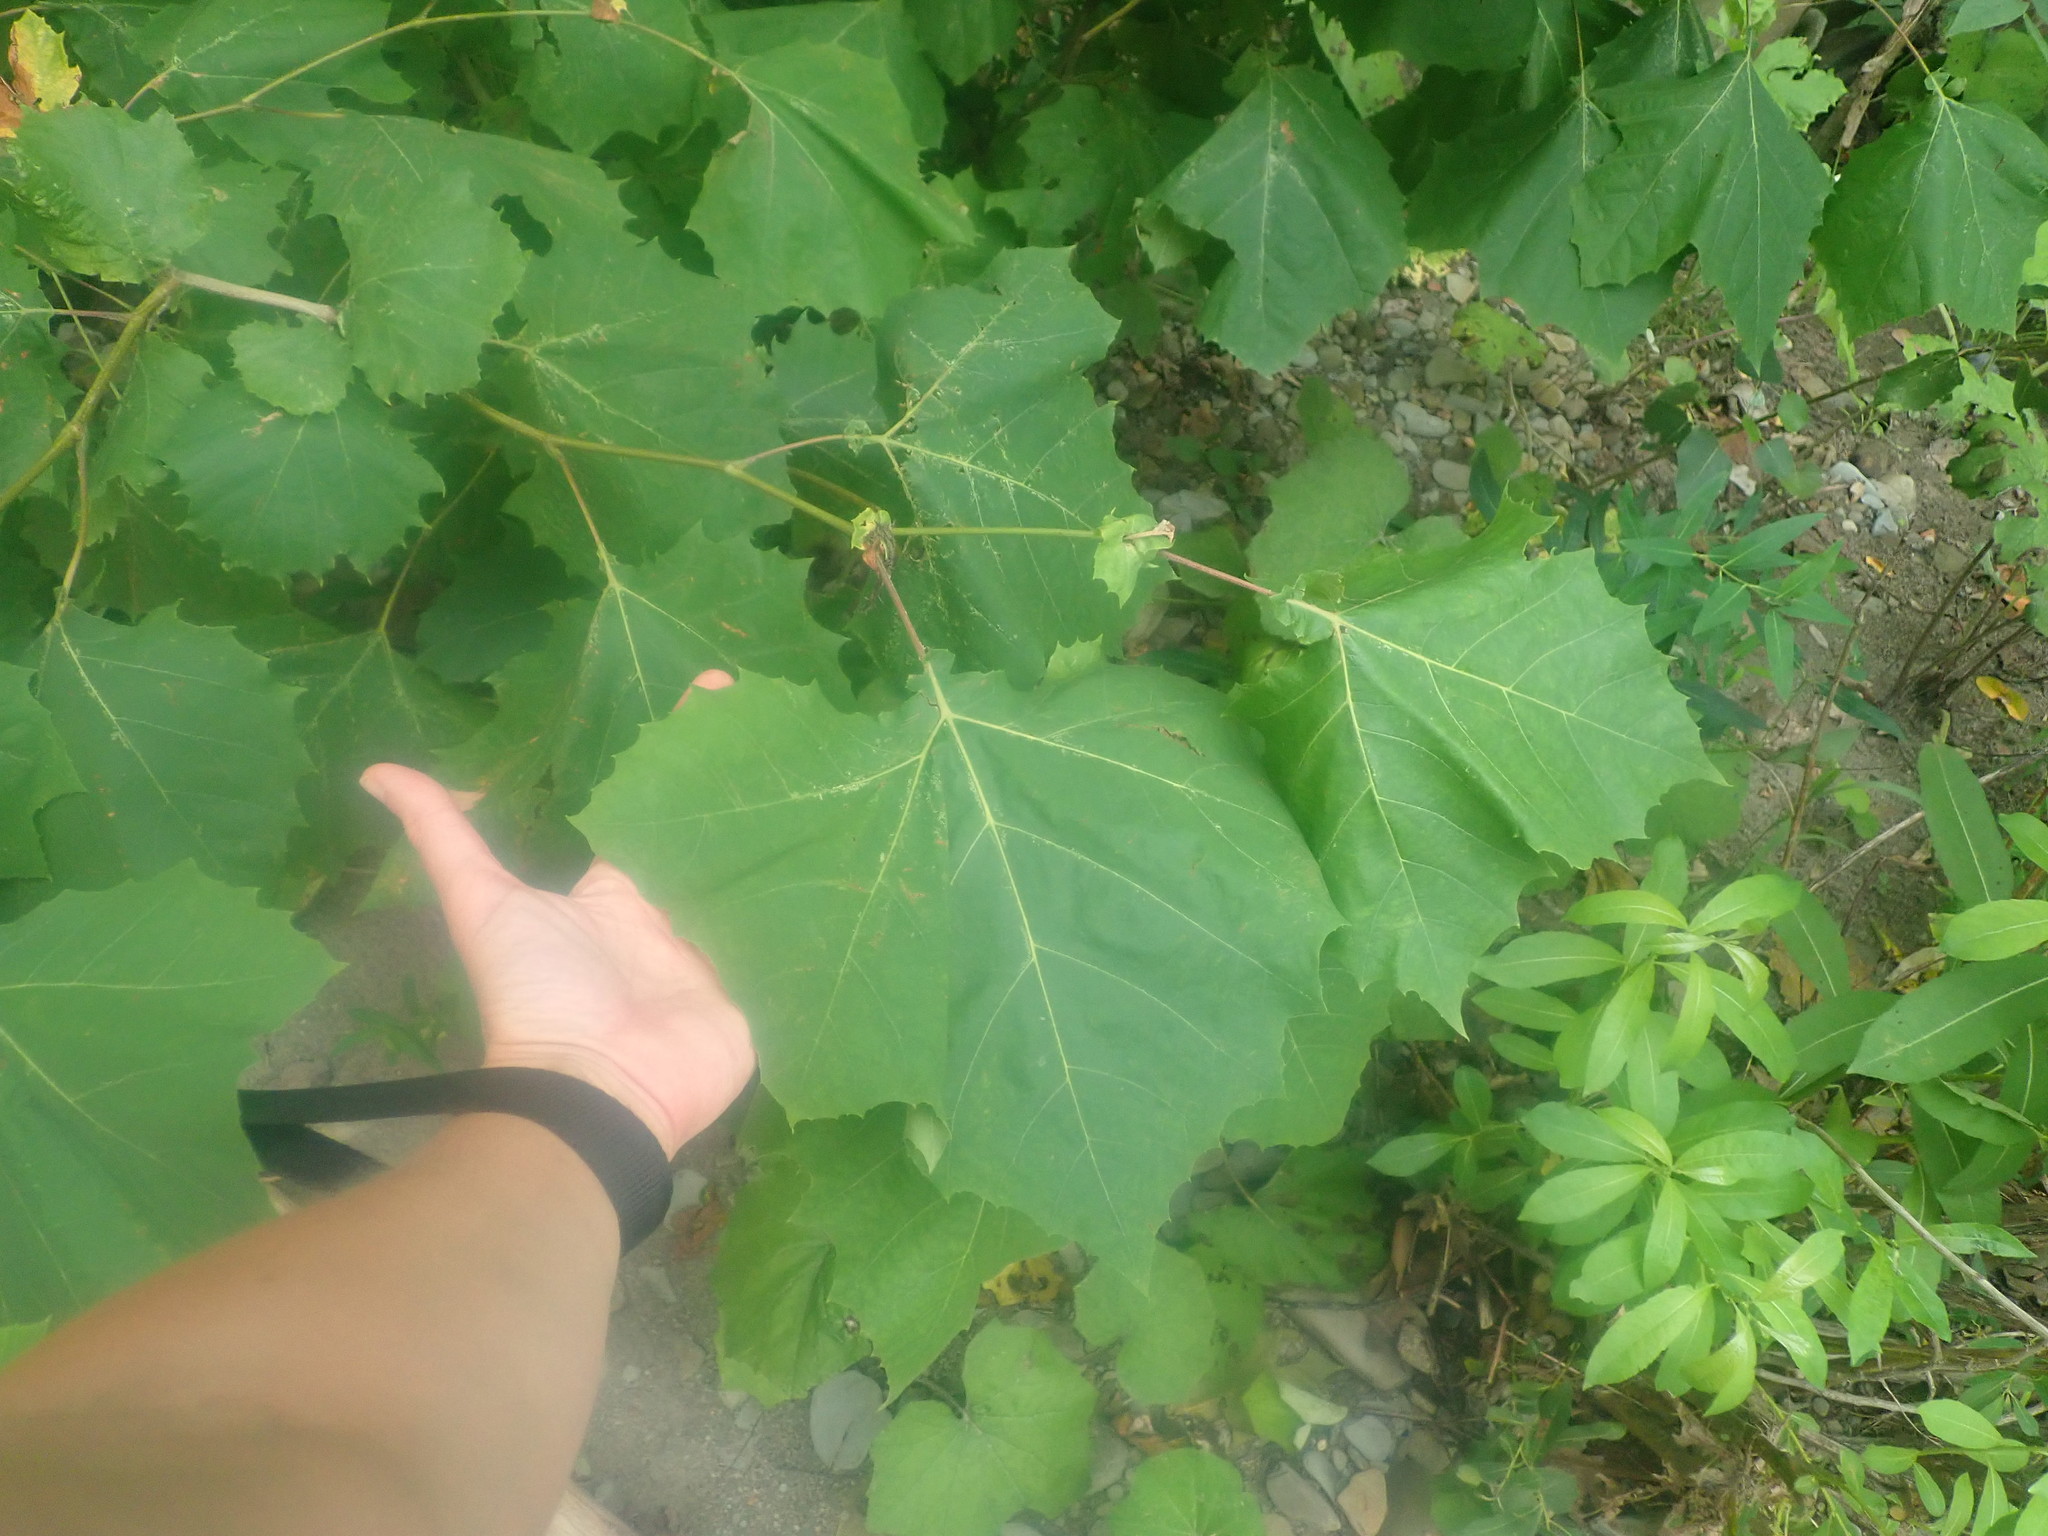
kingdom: Plantae
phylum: Tracheophyta
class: Magnoliopsida
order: Proteales
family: Platanaceae
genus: Platanus
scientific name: Platanus occidentalis
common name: American sycamore
